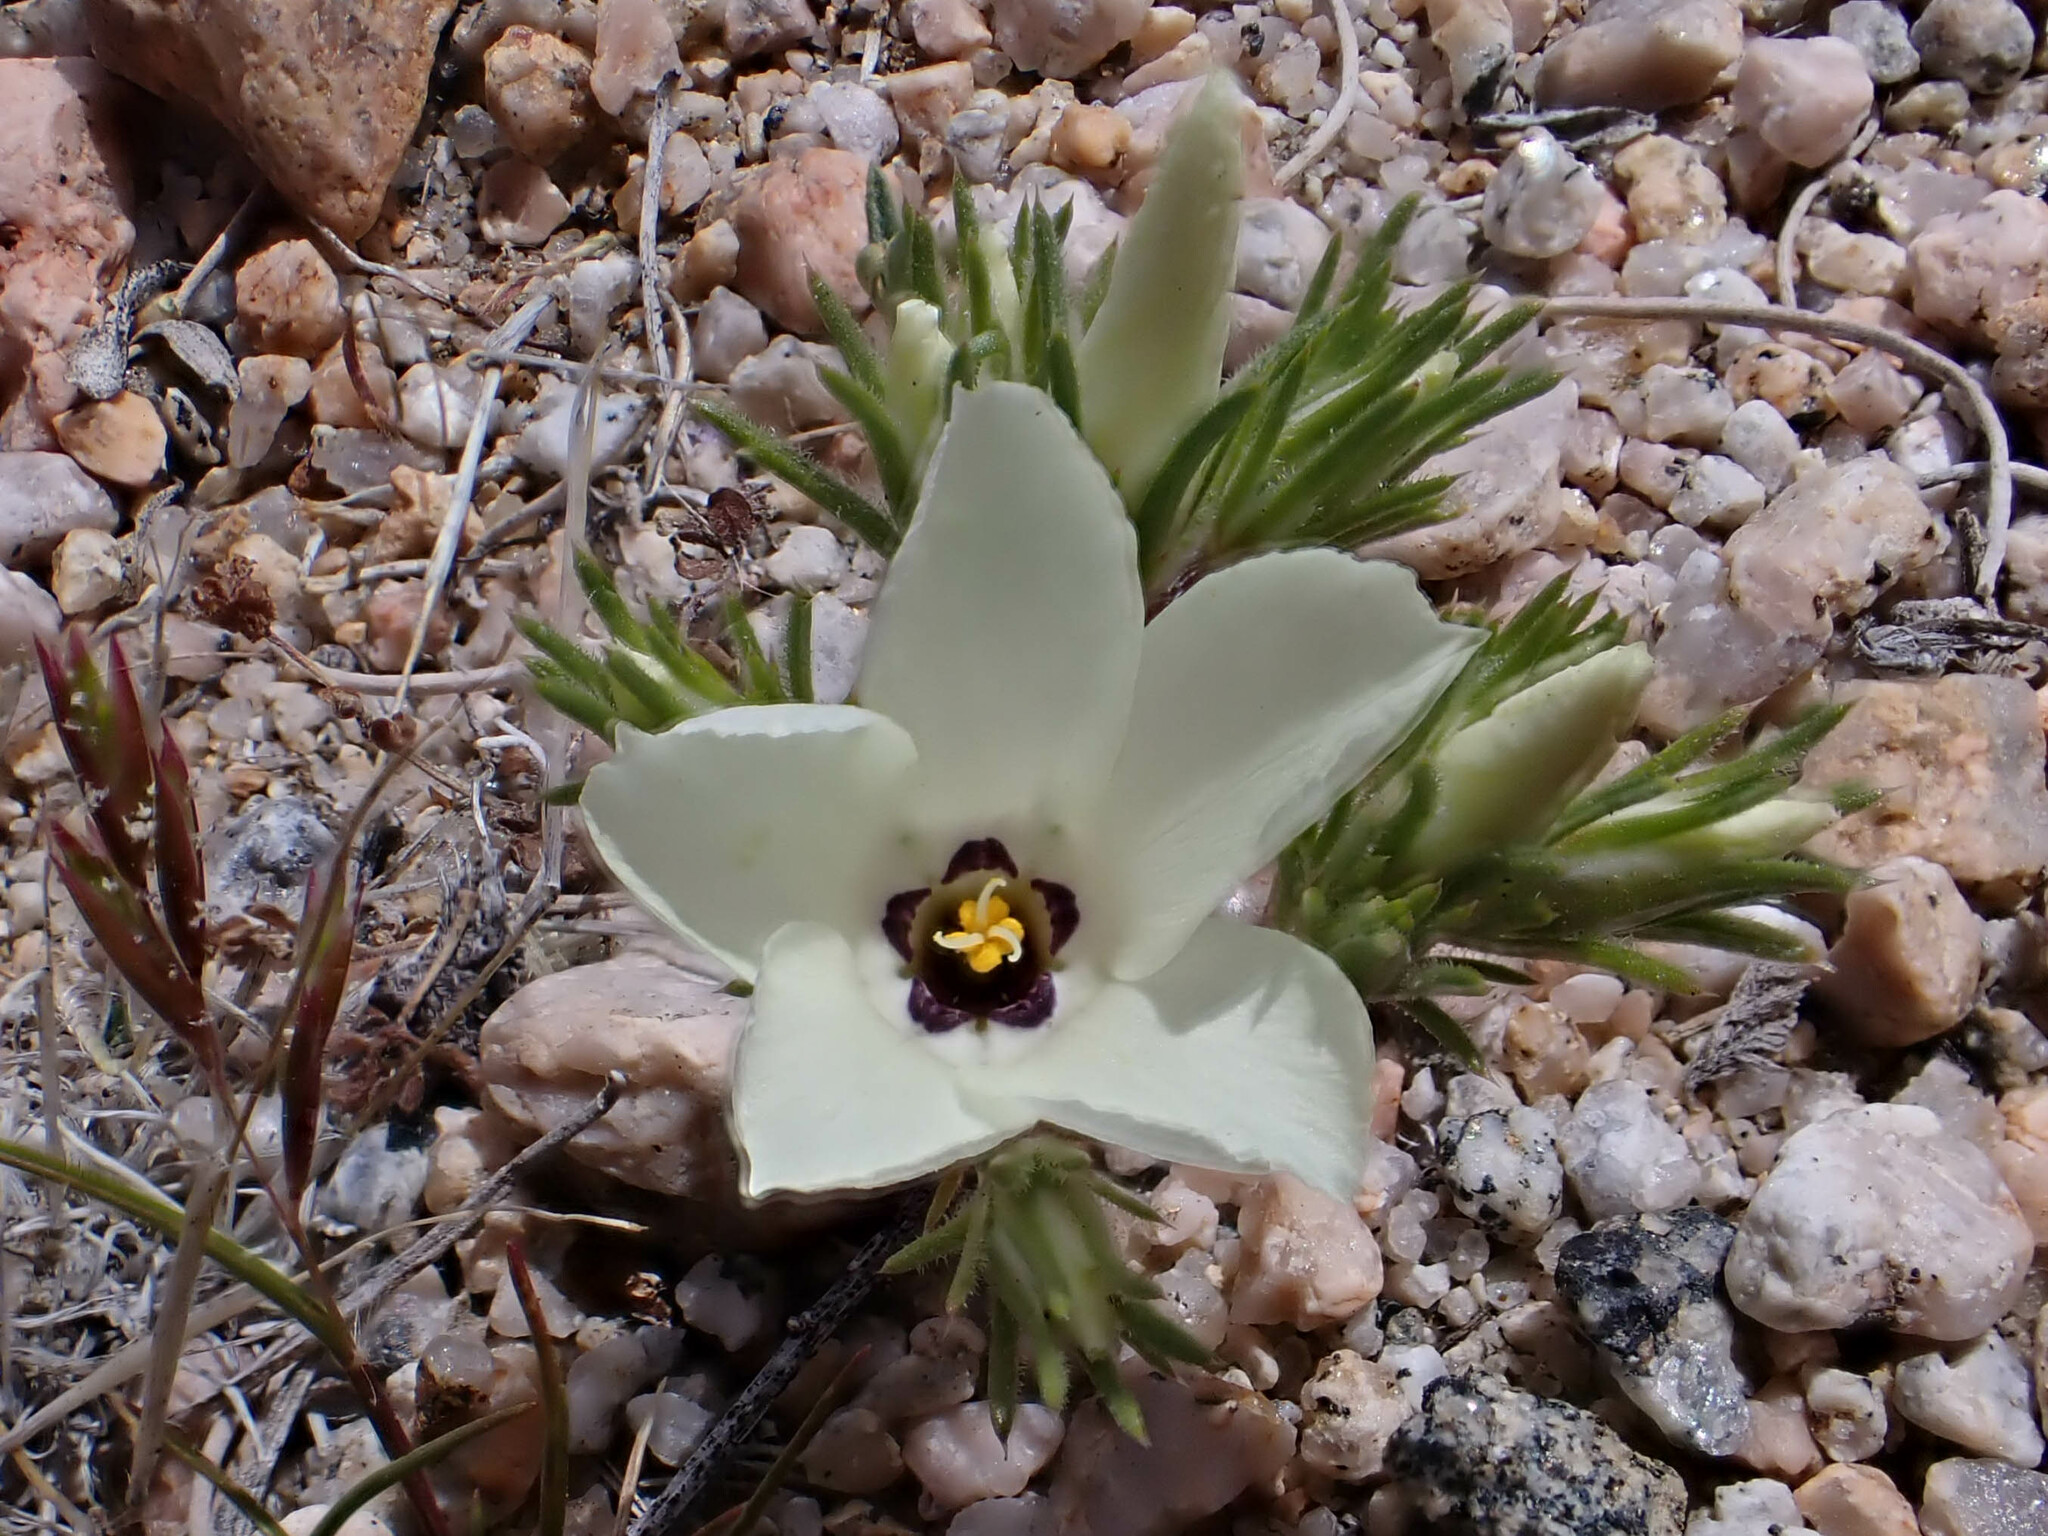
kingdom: Plantae
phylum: Tracheophyta
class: Magnoliopsida
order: Ericales
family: Polemoniaceae
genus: Linanthus
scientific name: Linanthus parryae
